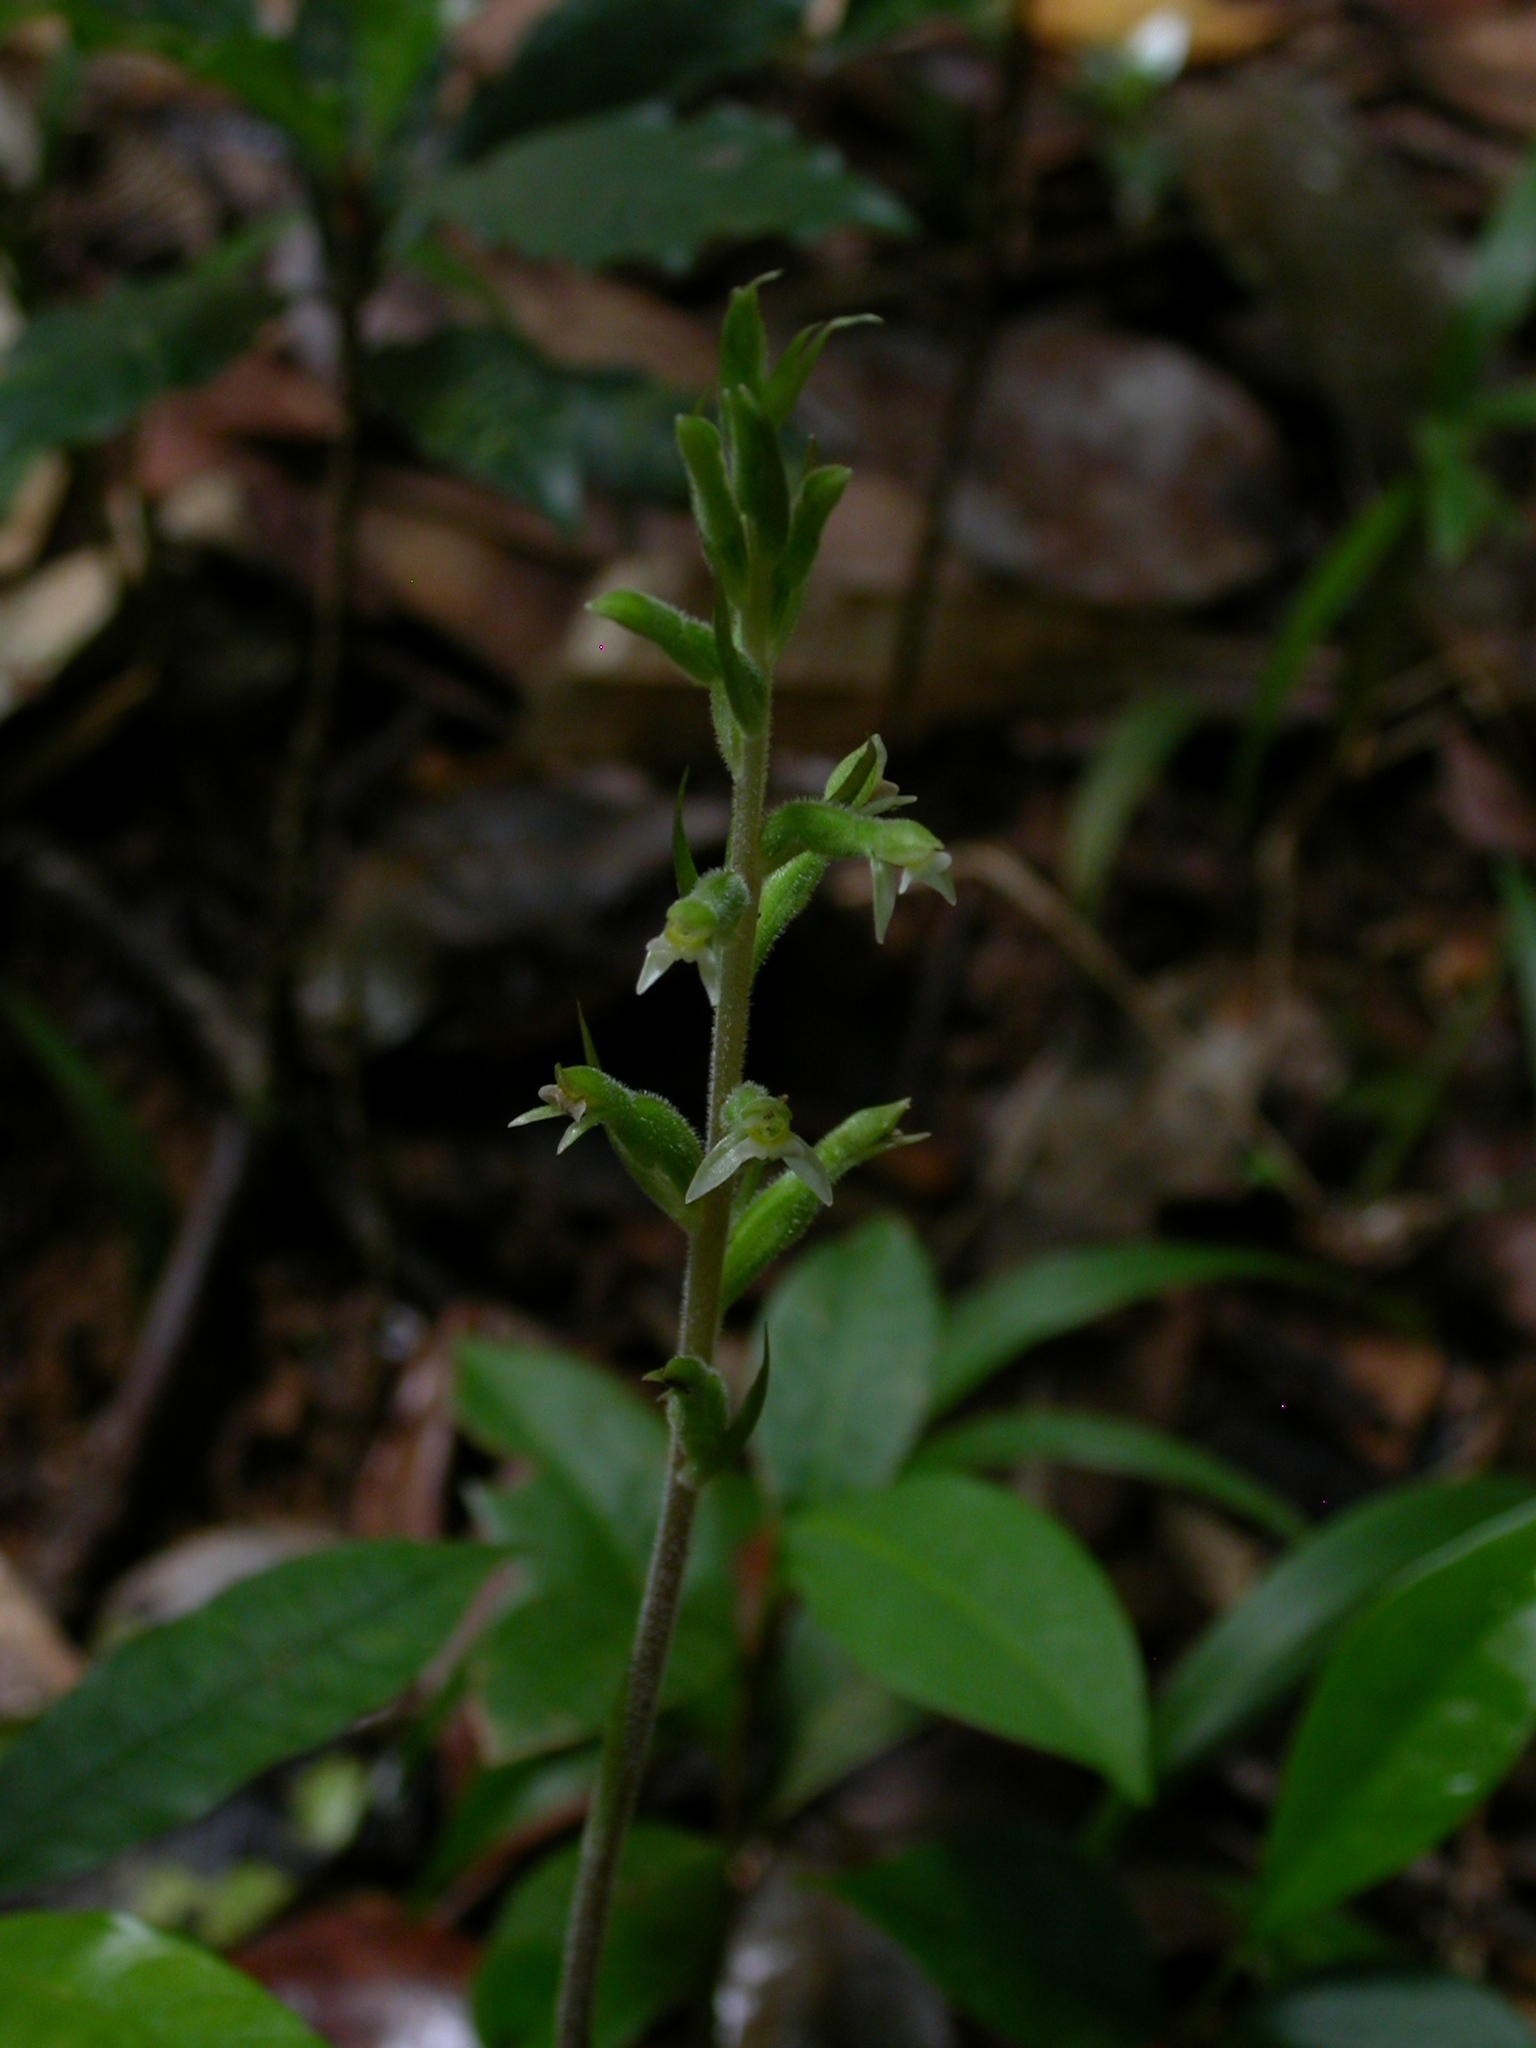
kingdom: Plantae
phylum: Tracheophyta
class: Liliopsida
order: Asparagales
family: Orchidaceae
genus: Pelexia
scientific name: Pelexia adnata
